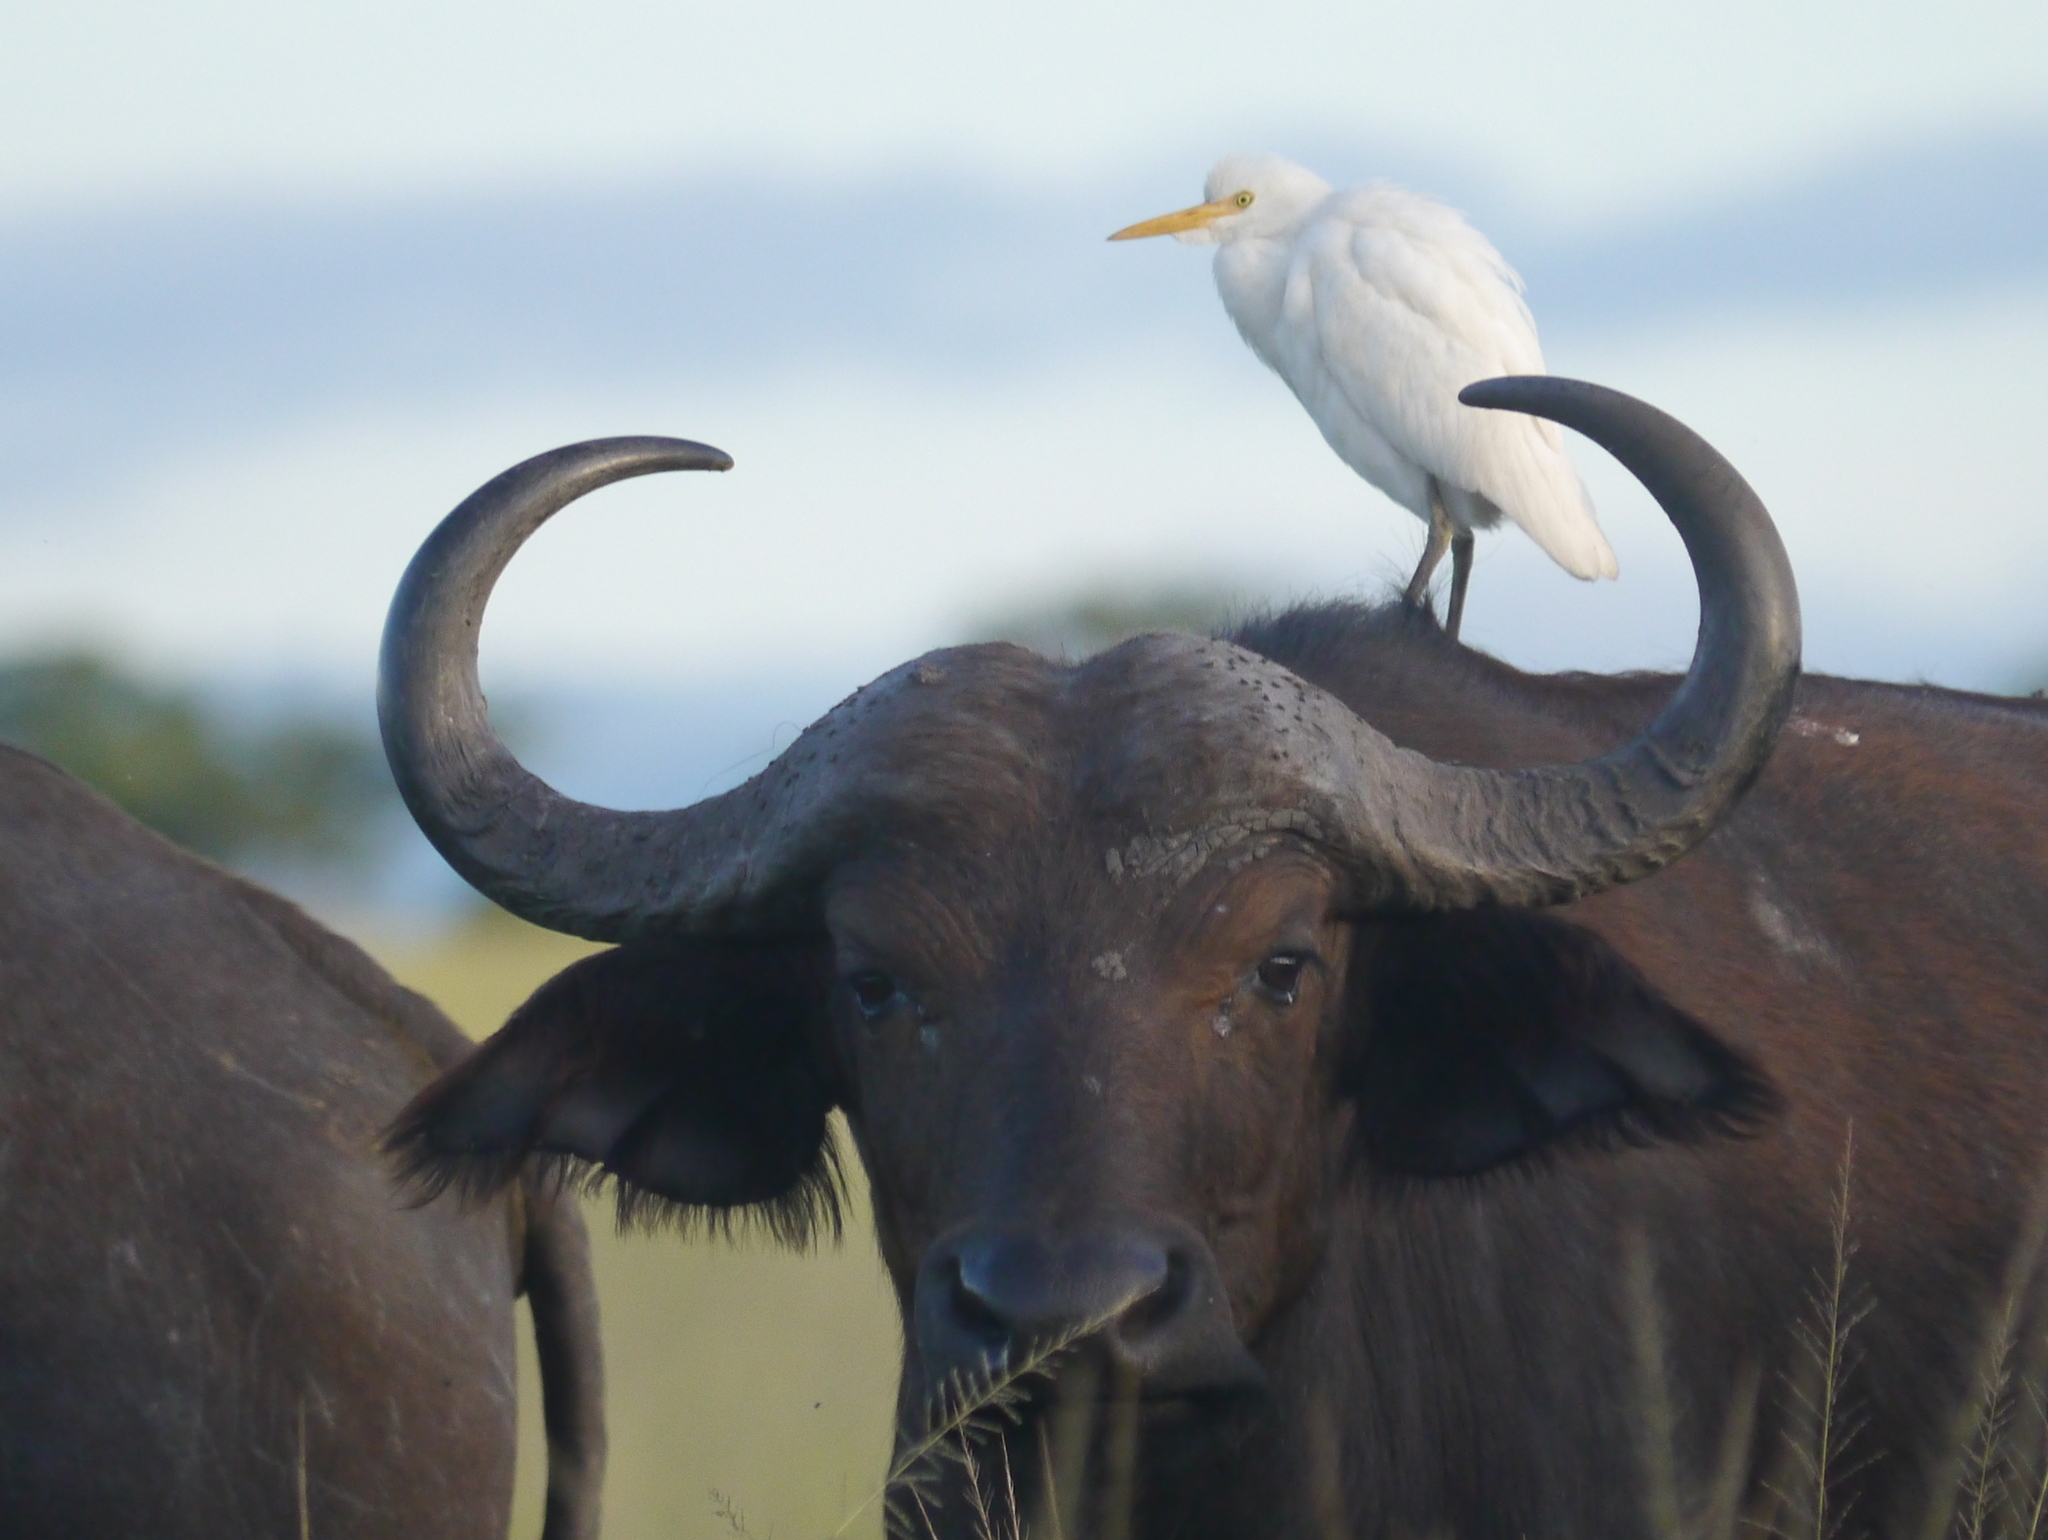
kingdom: Animalia
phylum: Chordata
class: Aves
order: Pelecaniformes
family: Ardeidae
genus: Bubulcus
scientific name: Bubulcus ibis
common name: Cattle egret
